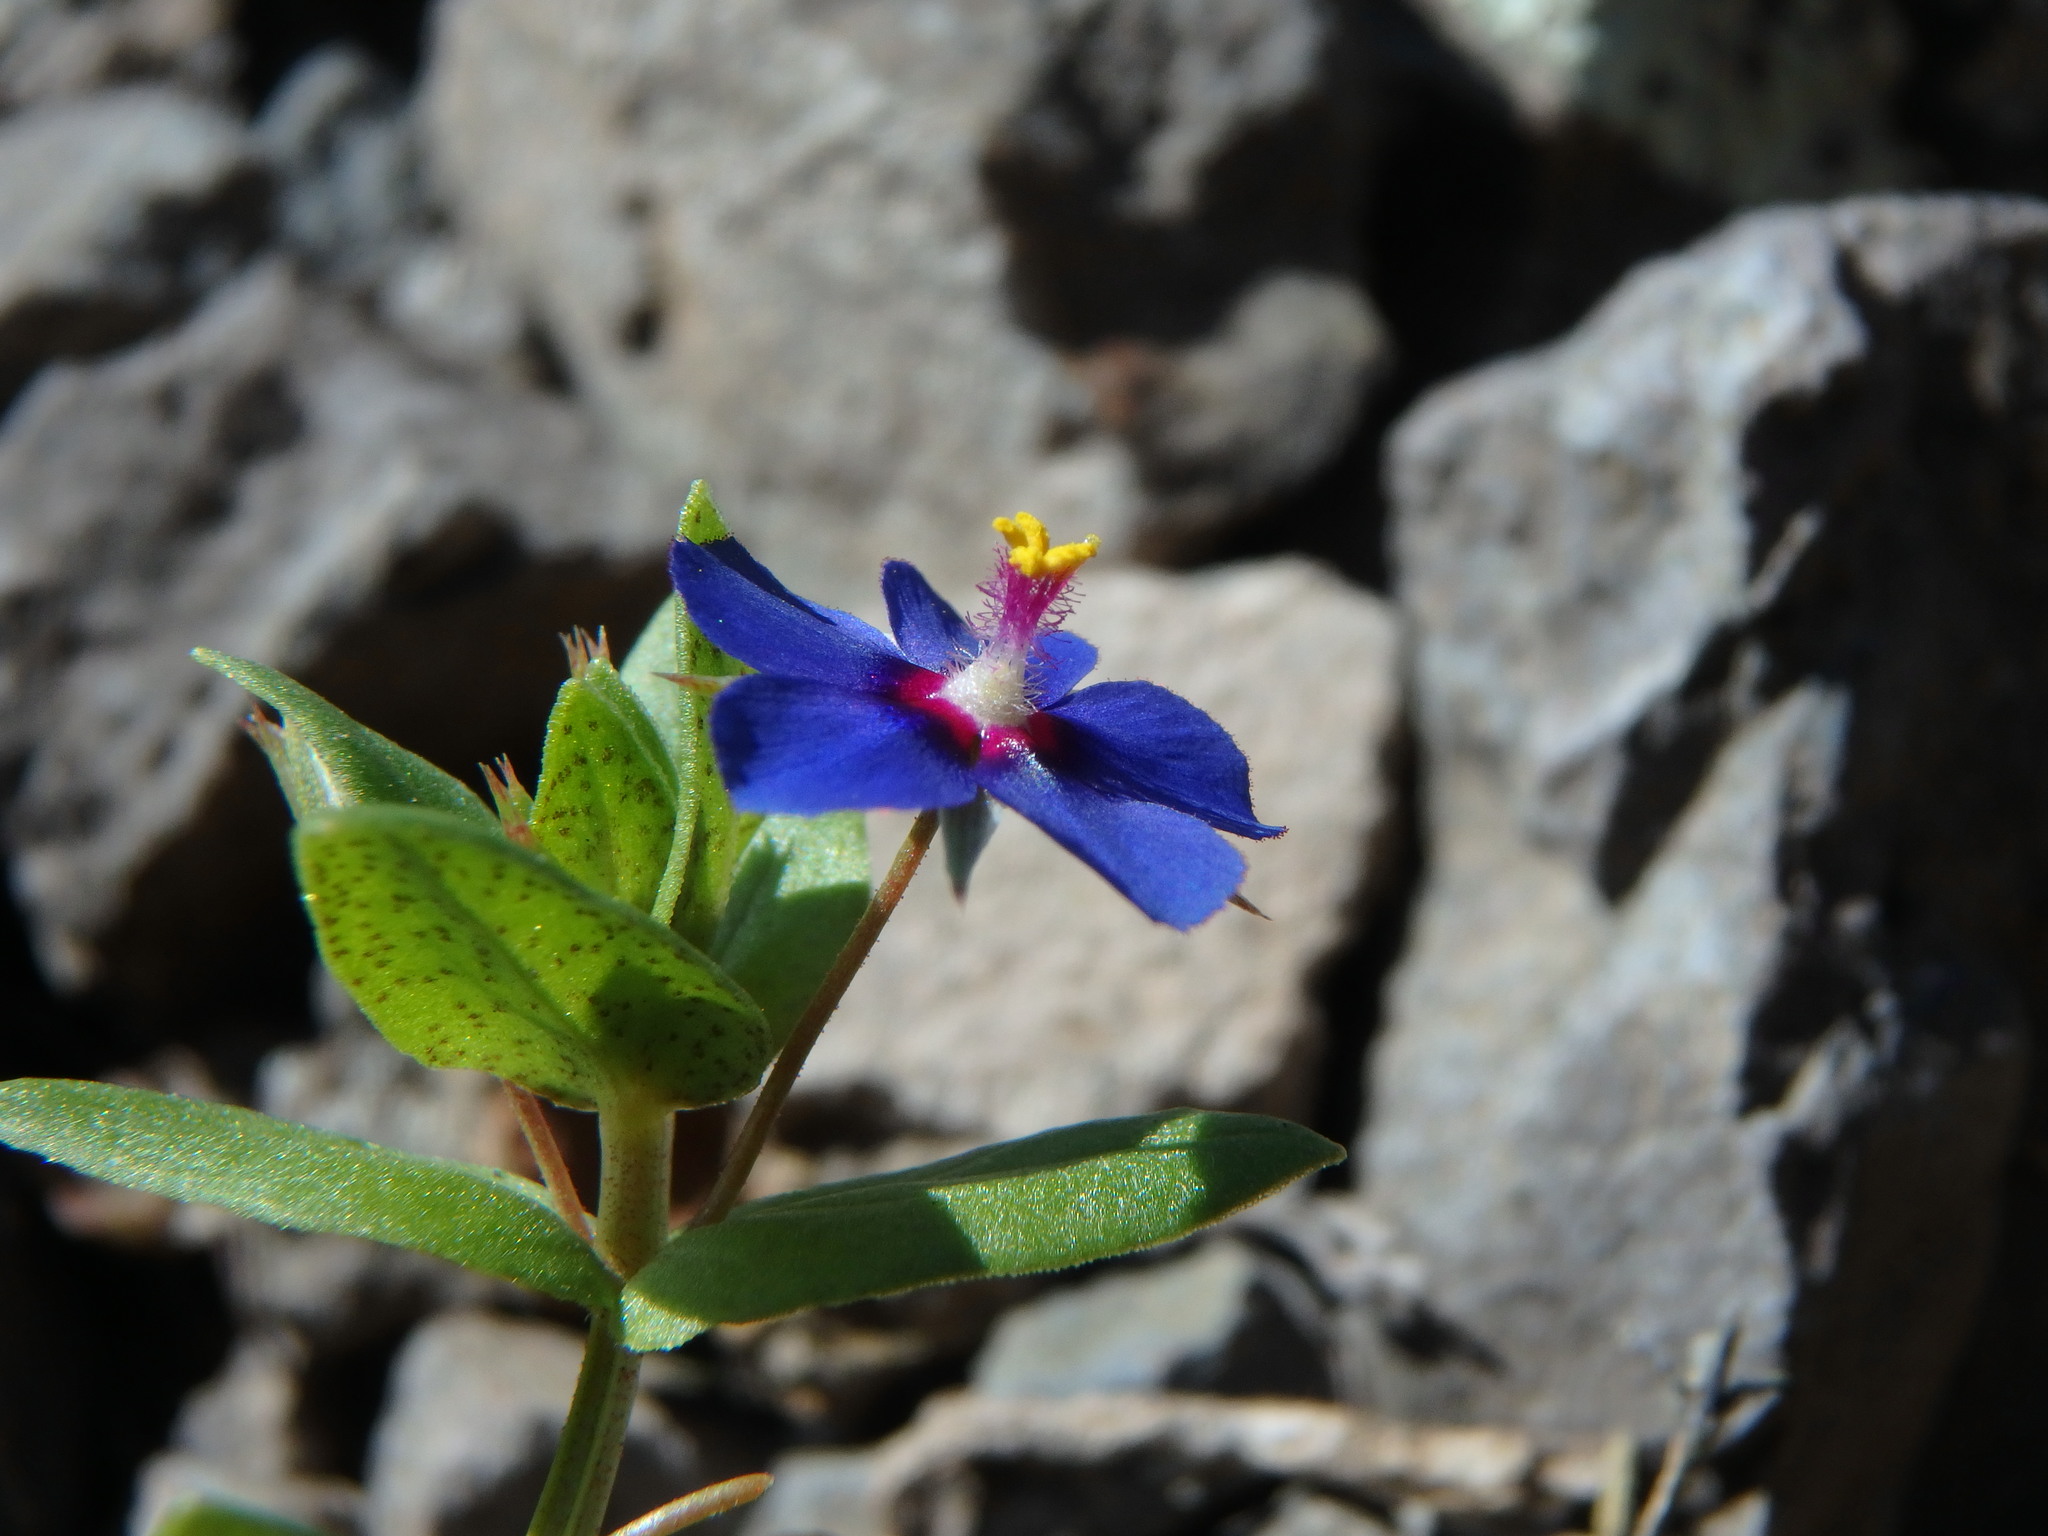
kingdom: Plantae
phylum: Tracheophyta
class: Magnoliopsida
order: Ericales
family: Primulaceae
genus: Lysimachia
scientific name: Lysimachia loeflingii
